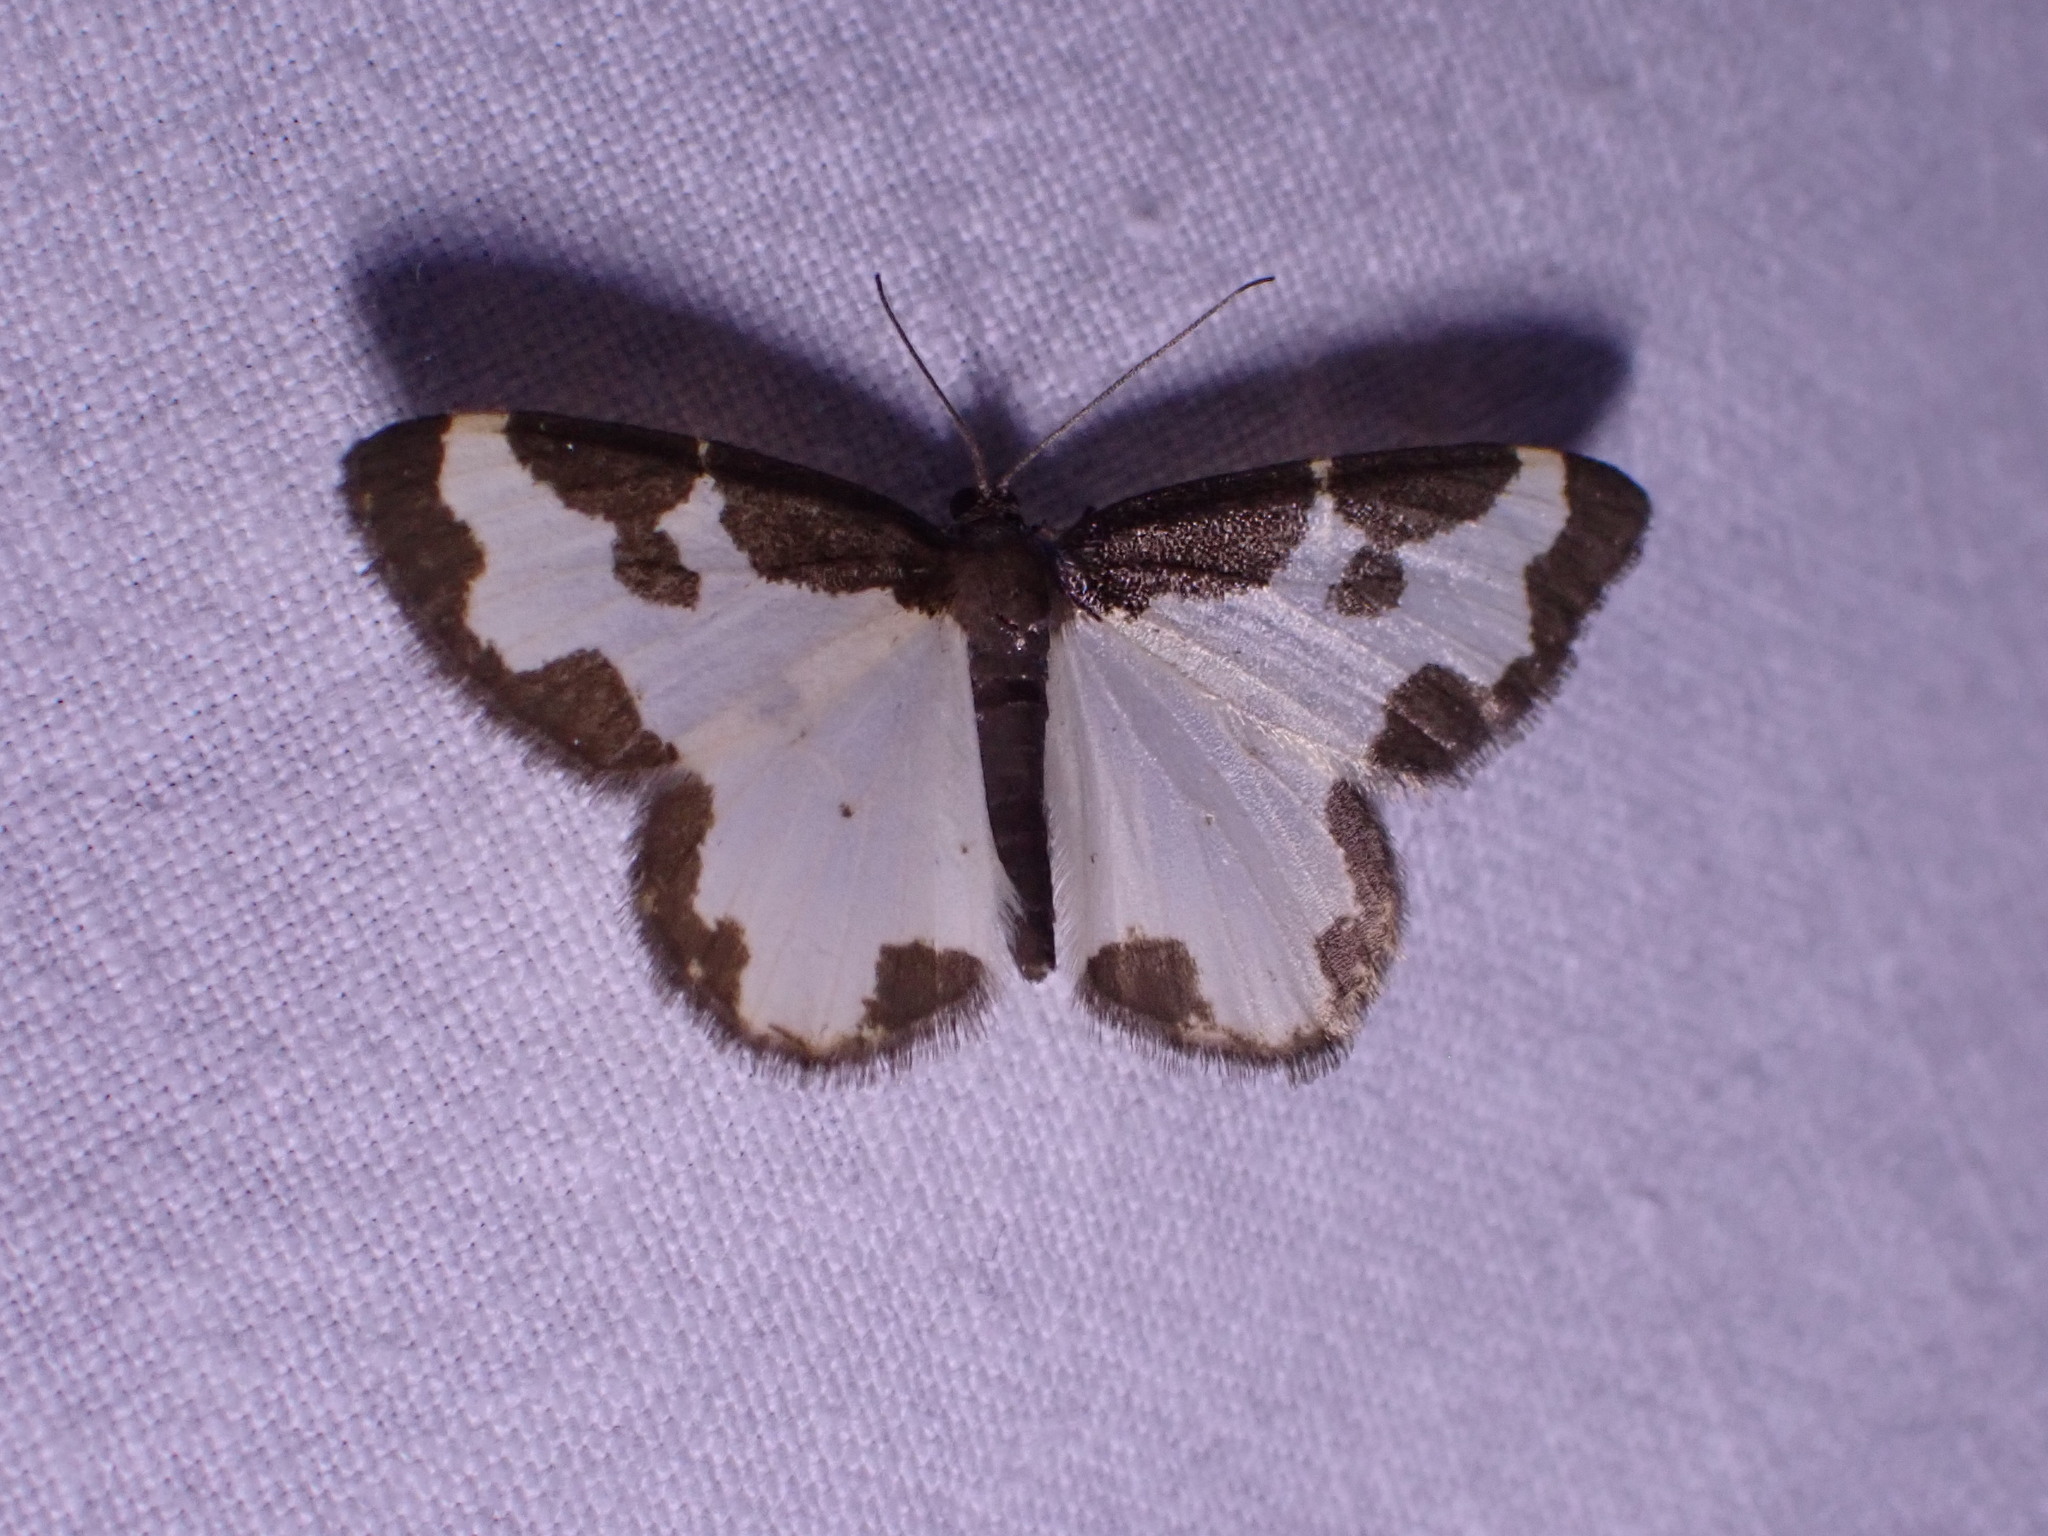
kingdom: Animalia
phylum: Arthropoda
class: Insecta
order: Lepidoptera
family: Geometridae
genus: Lomaspilis
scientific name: Lomaspilis marginata
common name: Clouded border
